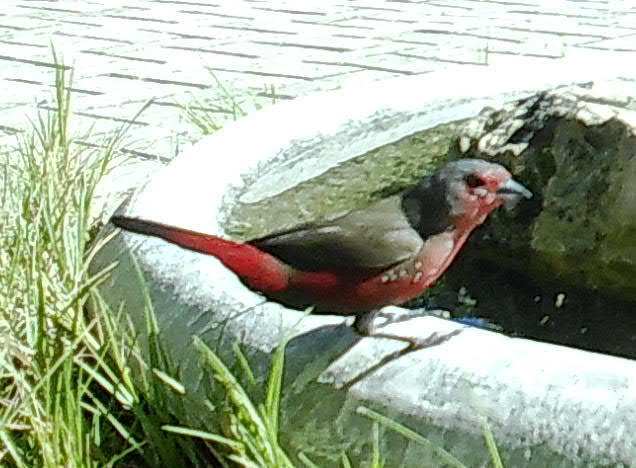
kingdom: Animalia
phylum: Chordata
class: Aves
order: Passeriformes
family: Estrildidae
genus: Lagonosticta
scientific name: Lagonosticta rubricata
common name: African firefinch
